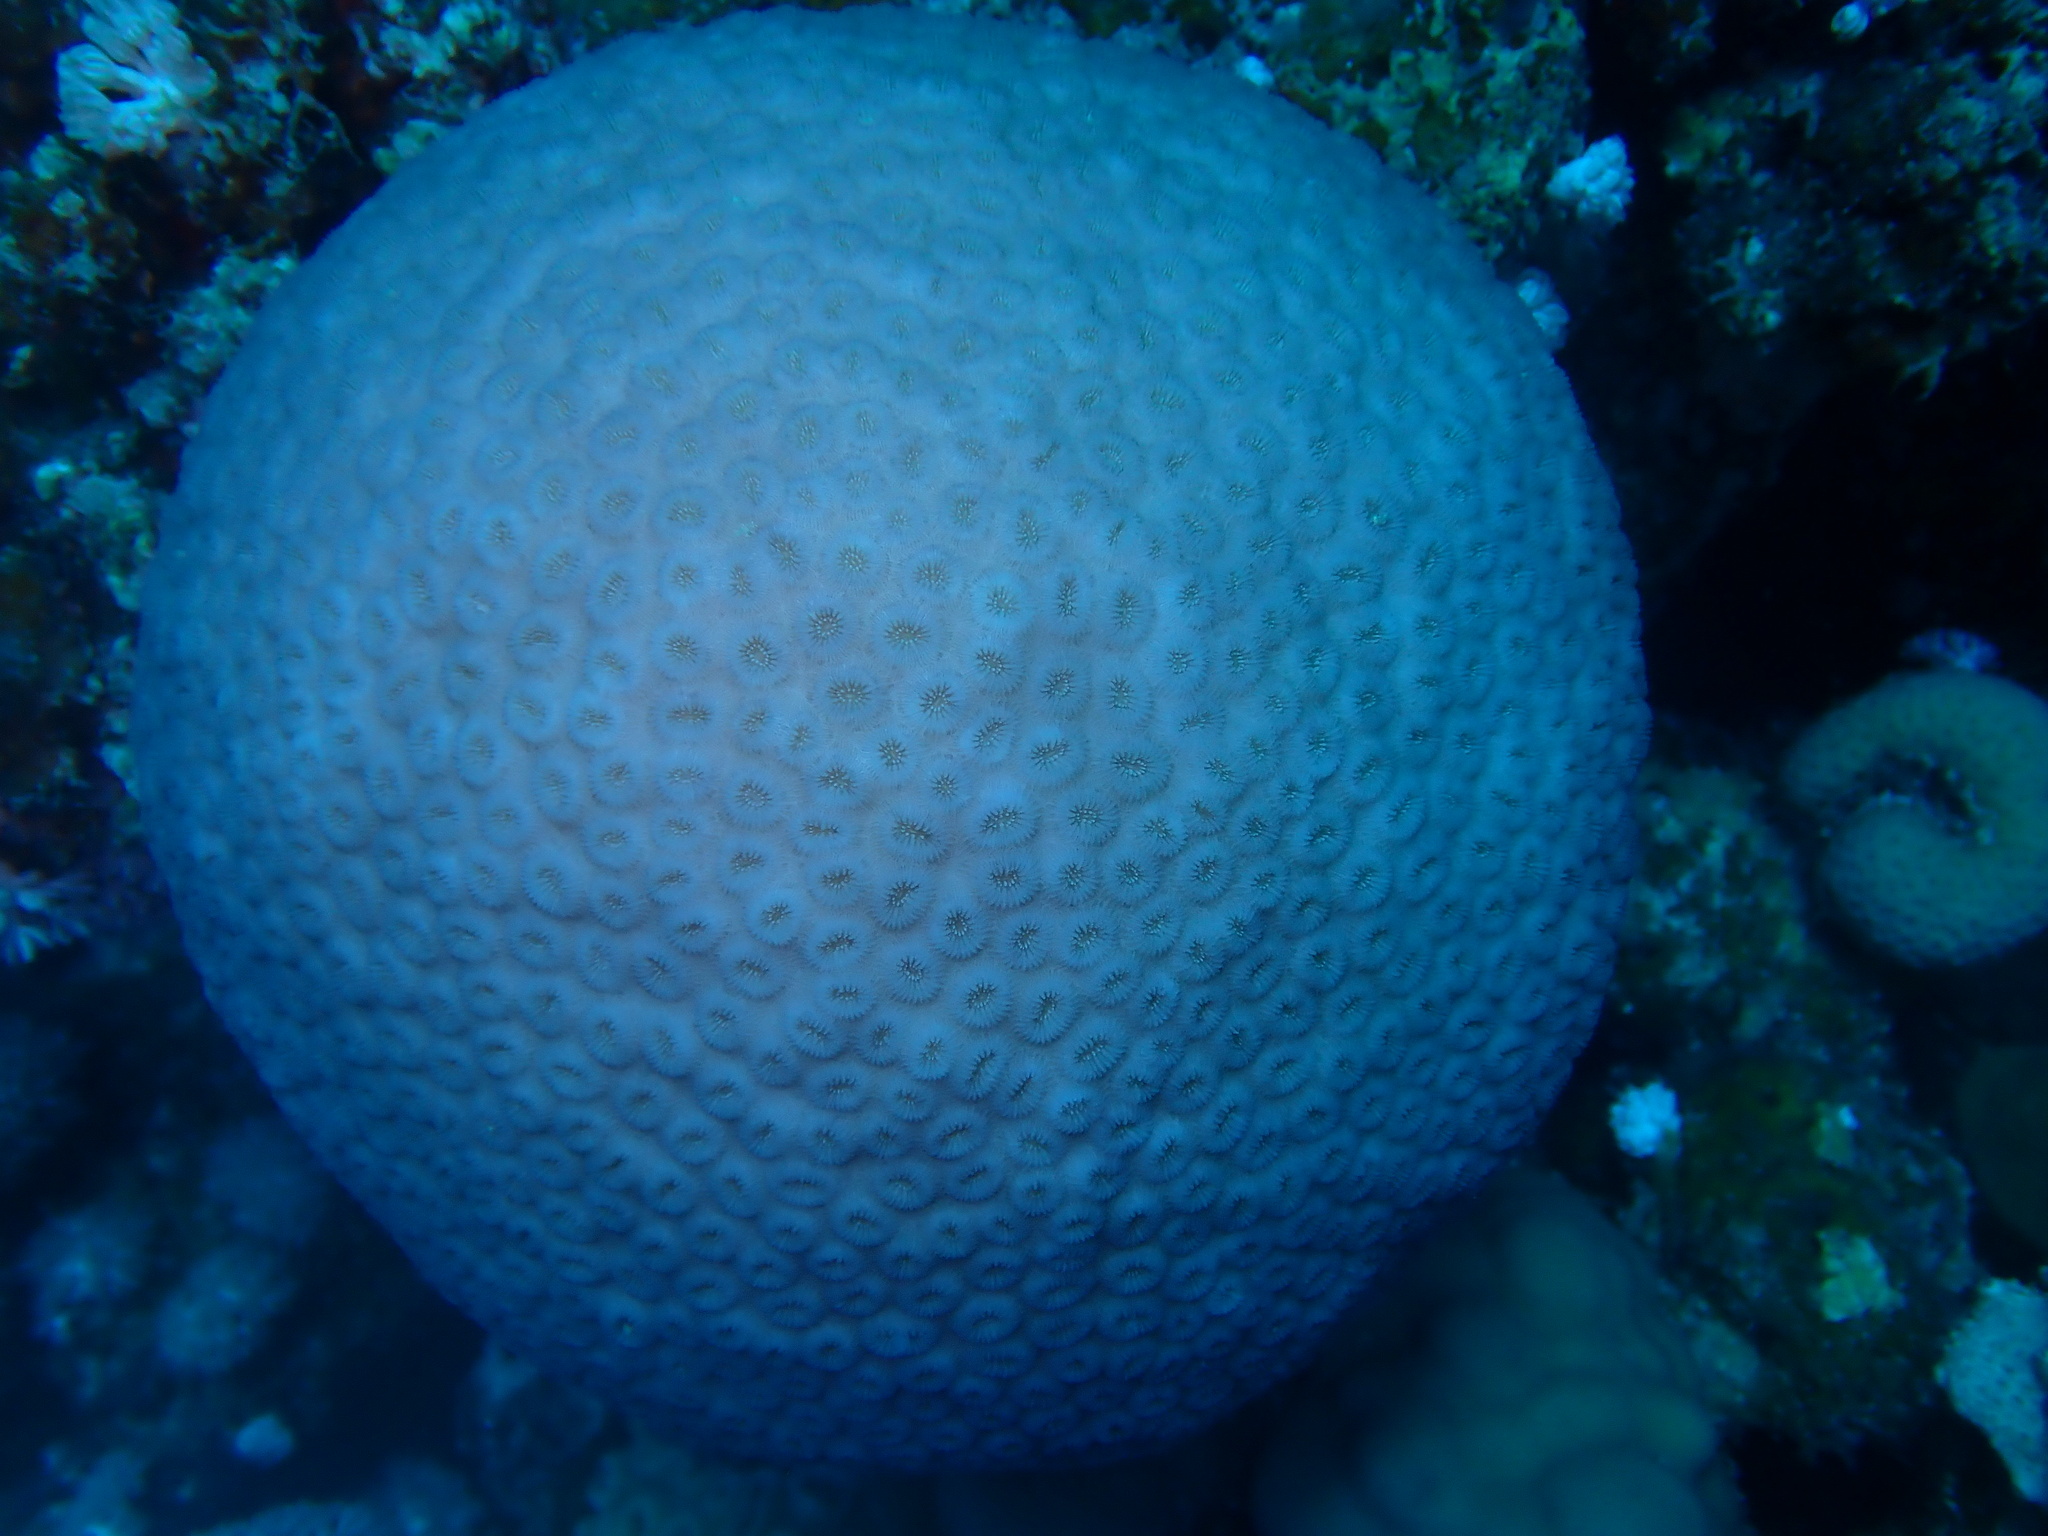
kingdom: Animalia
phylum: Cnidaria
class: Anthozoa
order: Scleractinia
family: Merulinidae
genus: Dipsastraea
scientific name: Dipsastraea laxa
